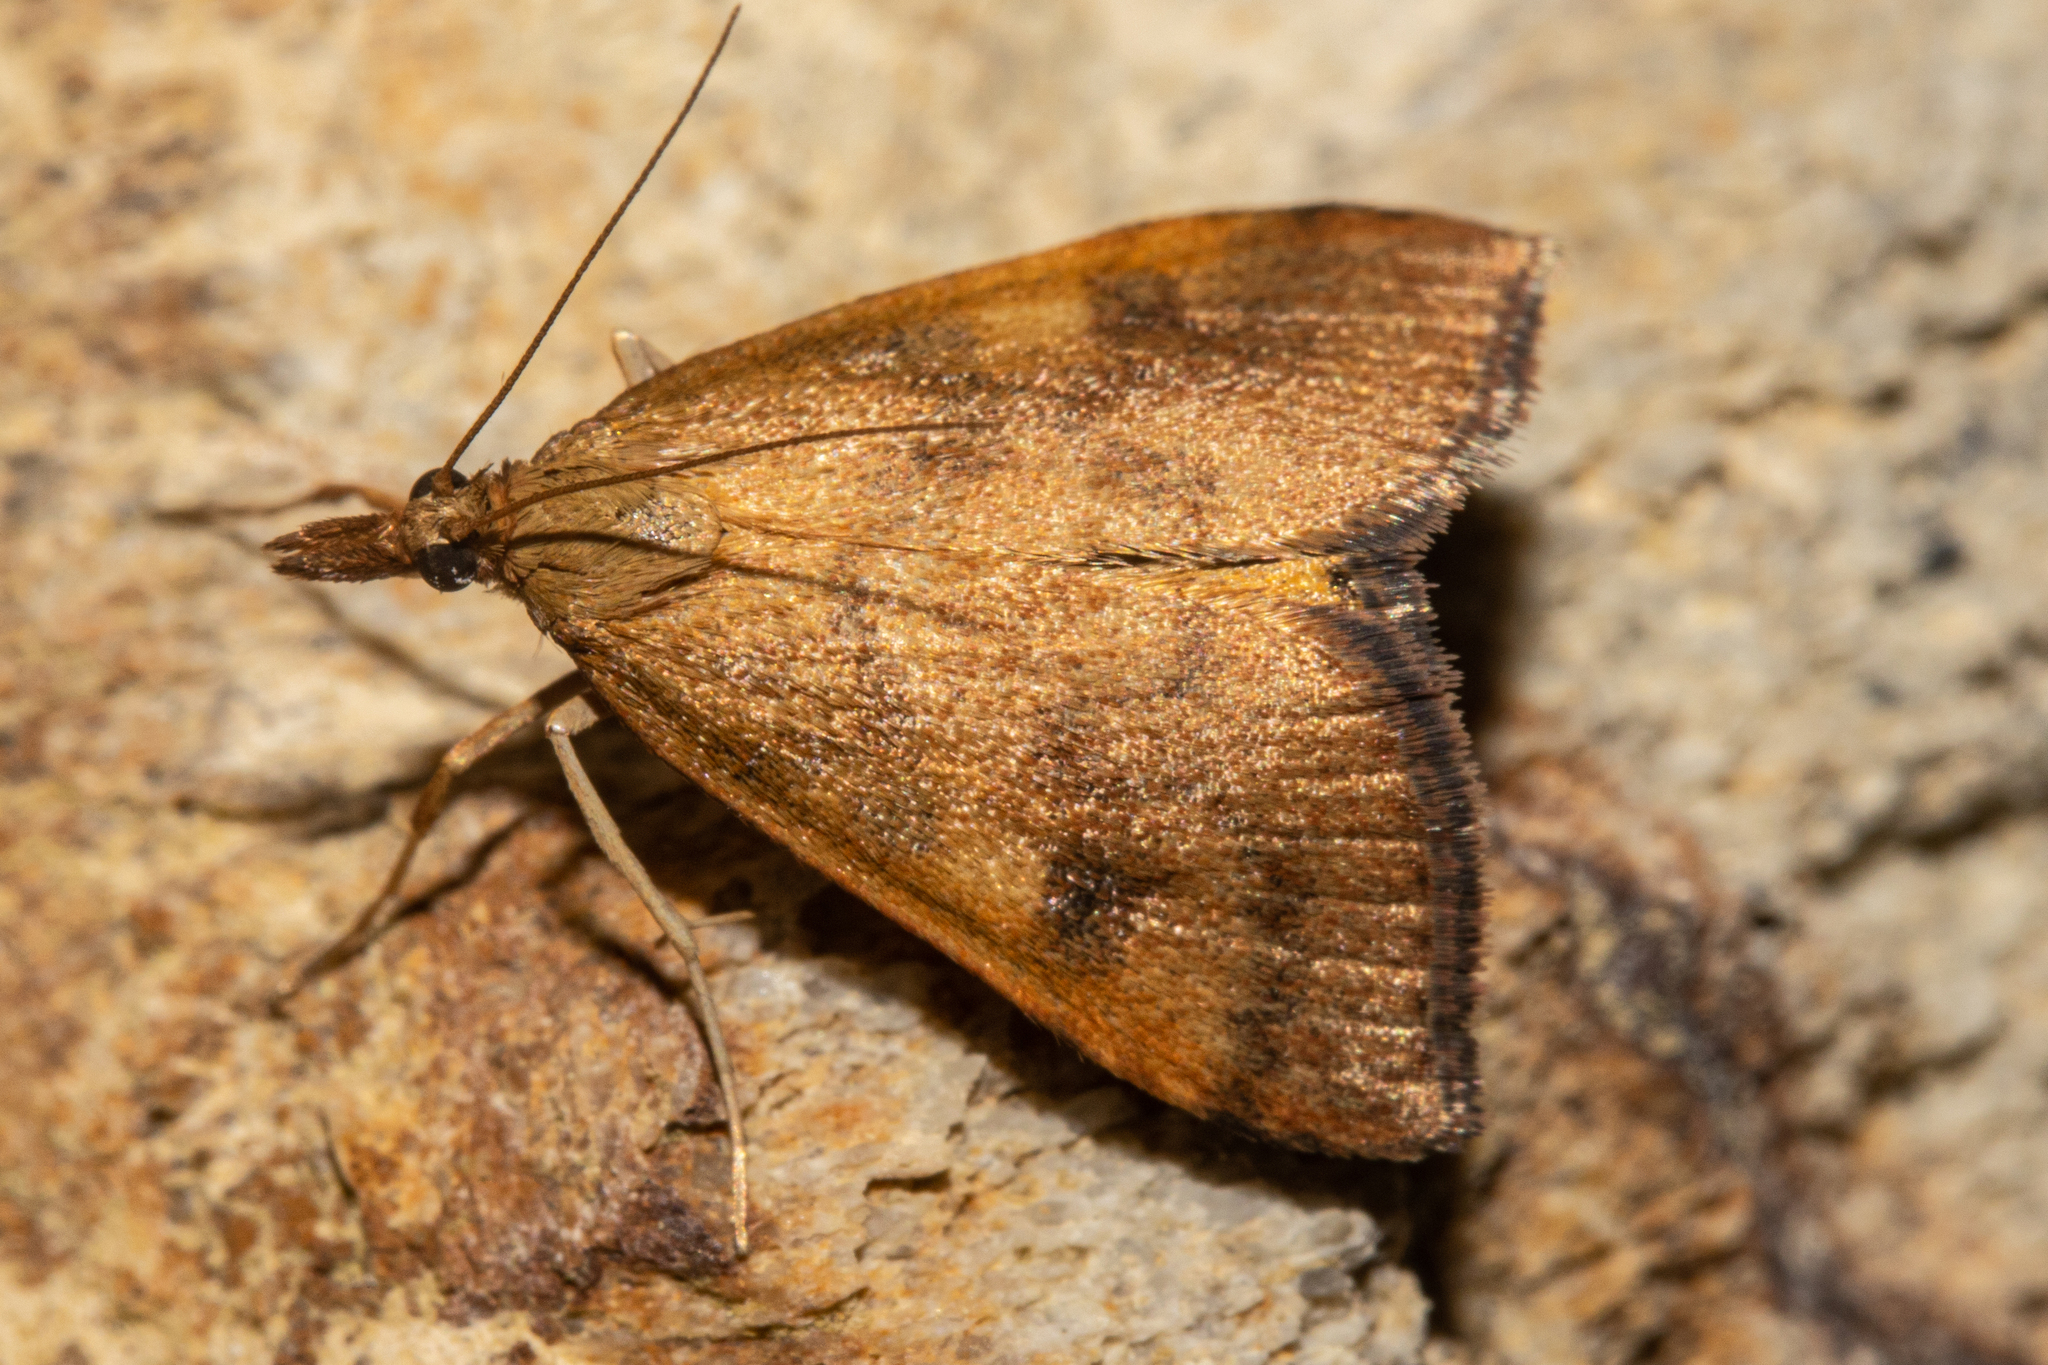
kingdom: Animalia
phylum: Arthropoda
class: Insecta
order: Lepidoptera
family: Crambidae
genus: Udea
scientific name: Udea Mnesictena flavidalis
